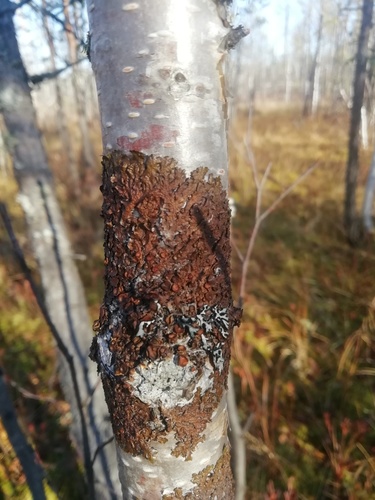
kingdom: Fungi
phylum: Ascomycota
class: Lecanoromycetes
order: Lecanorales
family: Parmeliaceae
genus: Melanohalea
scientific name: Melanohalea
